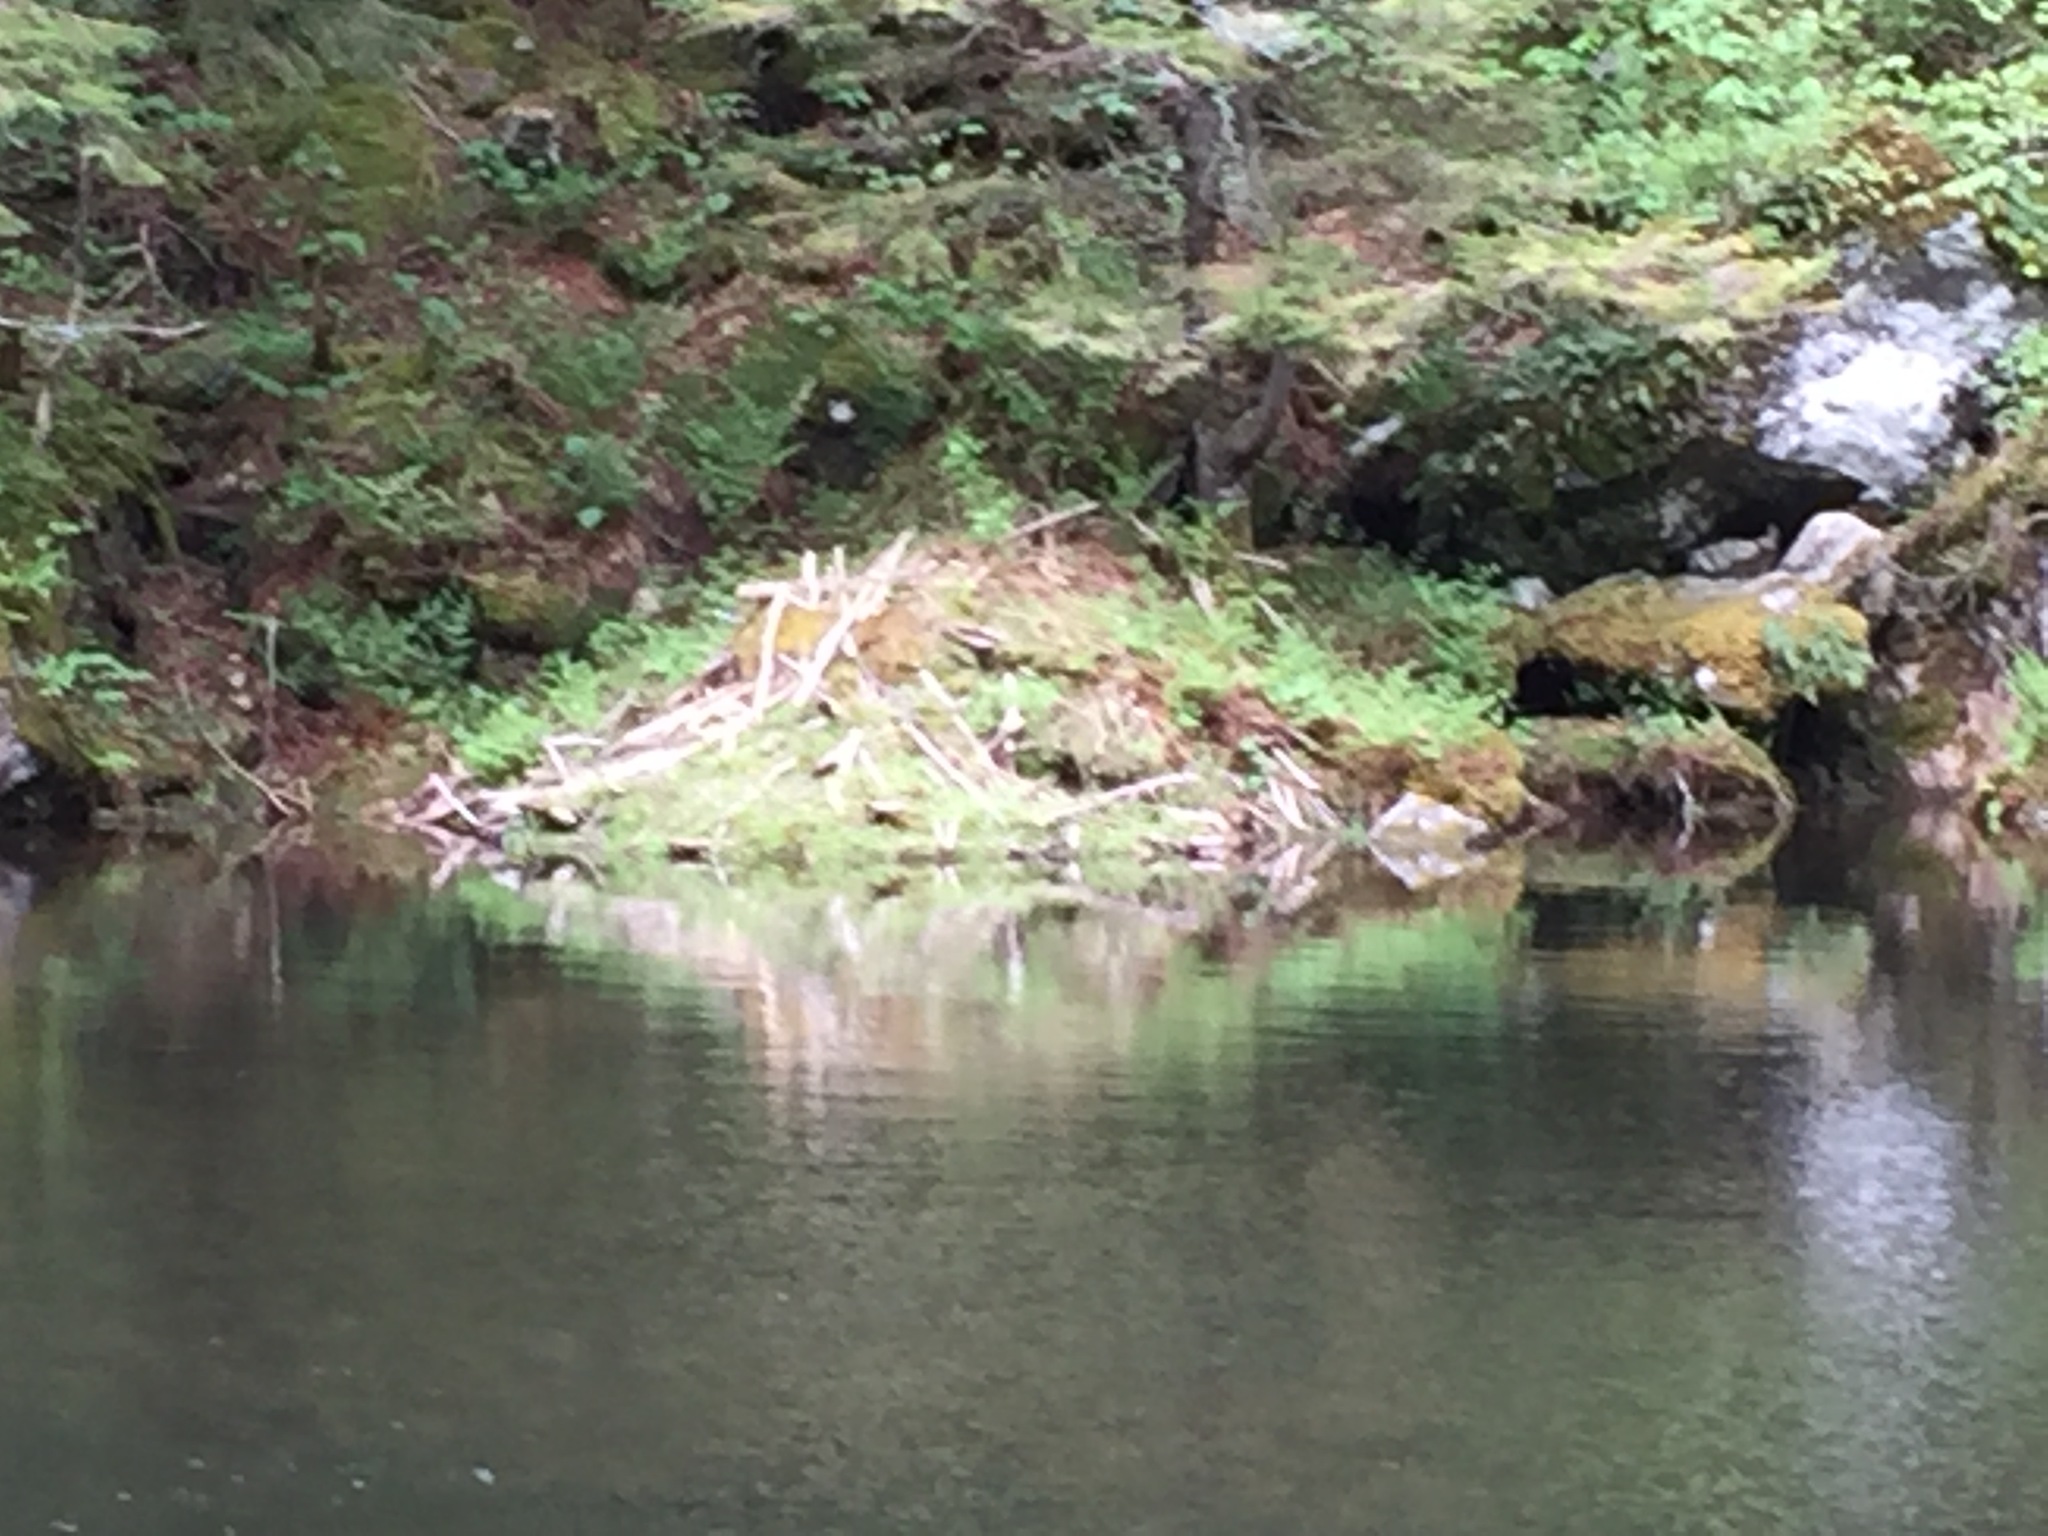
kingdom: Animalia
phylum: Chordata
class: Mammalia
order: Rodentia
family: Castoridae
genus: Castor
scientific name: Castor canadensis
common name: American beaver
